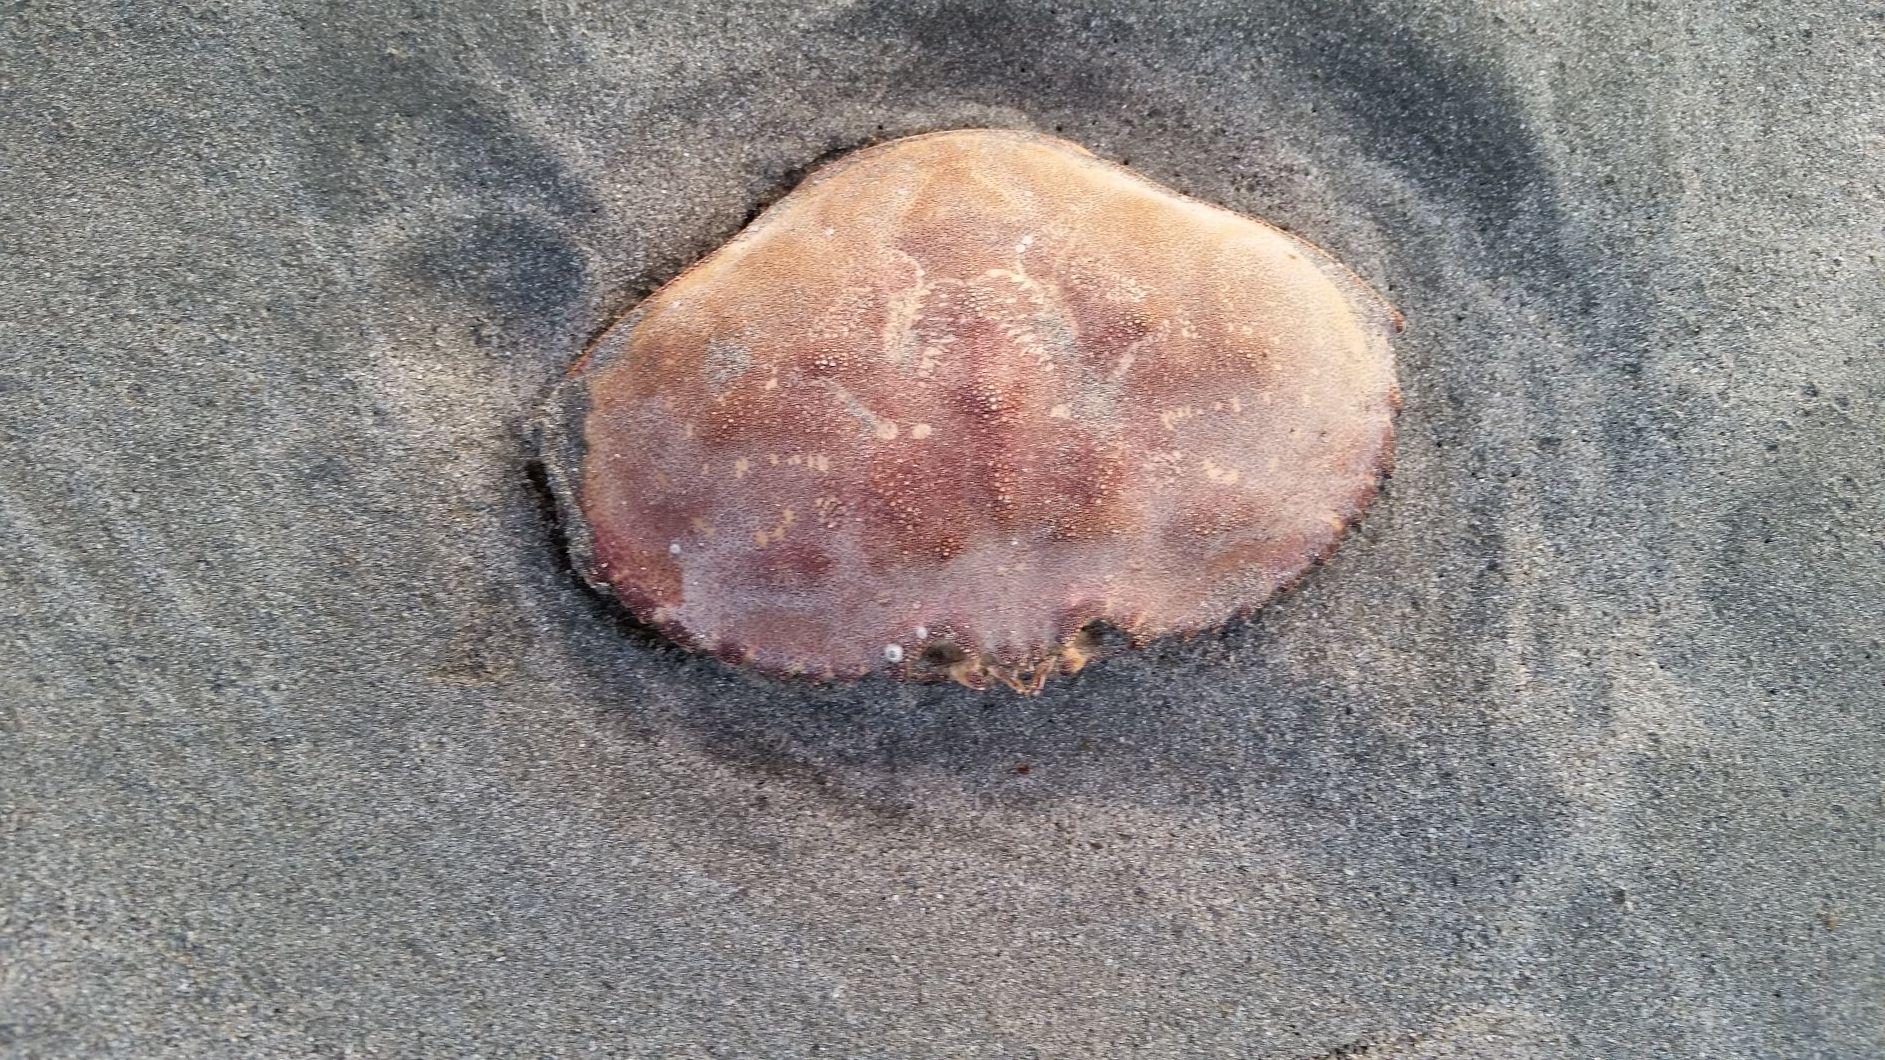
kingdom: Animalia
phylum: Arthropoda
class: Malacostraca
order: Decapoda
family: Cancridae
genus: Metacarcinus
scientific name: Metacarcinus magister
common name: Californian crab
